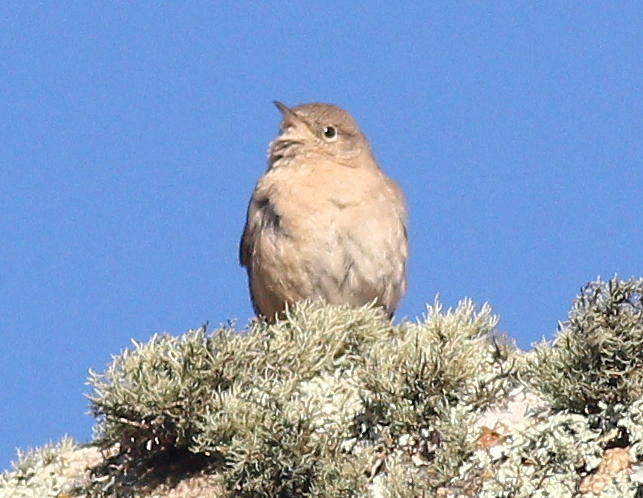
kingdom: Animalia
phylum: Chordata
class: Aves
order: Passeriformes
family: Troglodytidae
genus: Troglodytes
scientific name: Troglodytes aedon
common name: House wren
